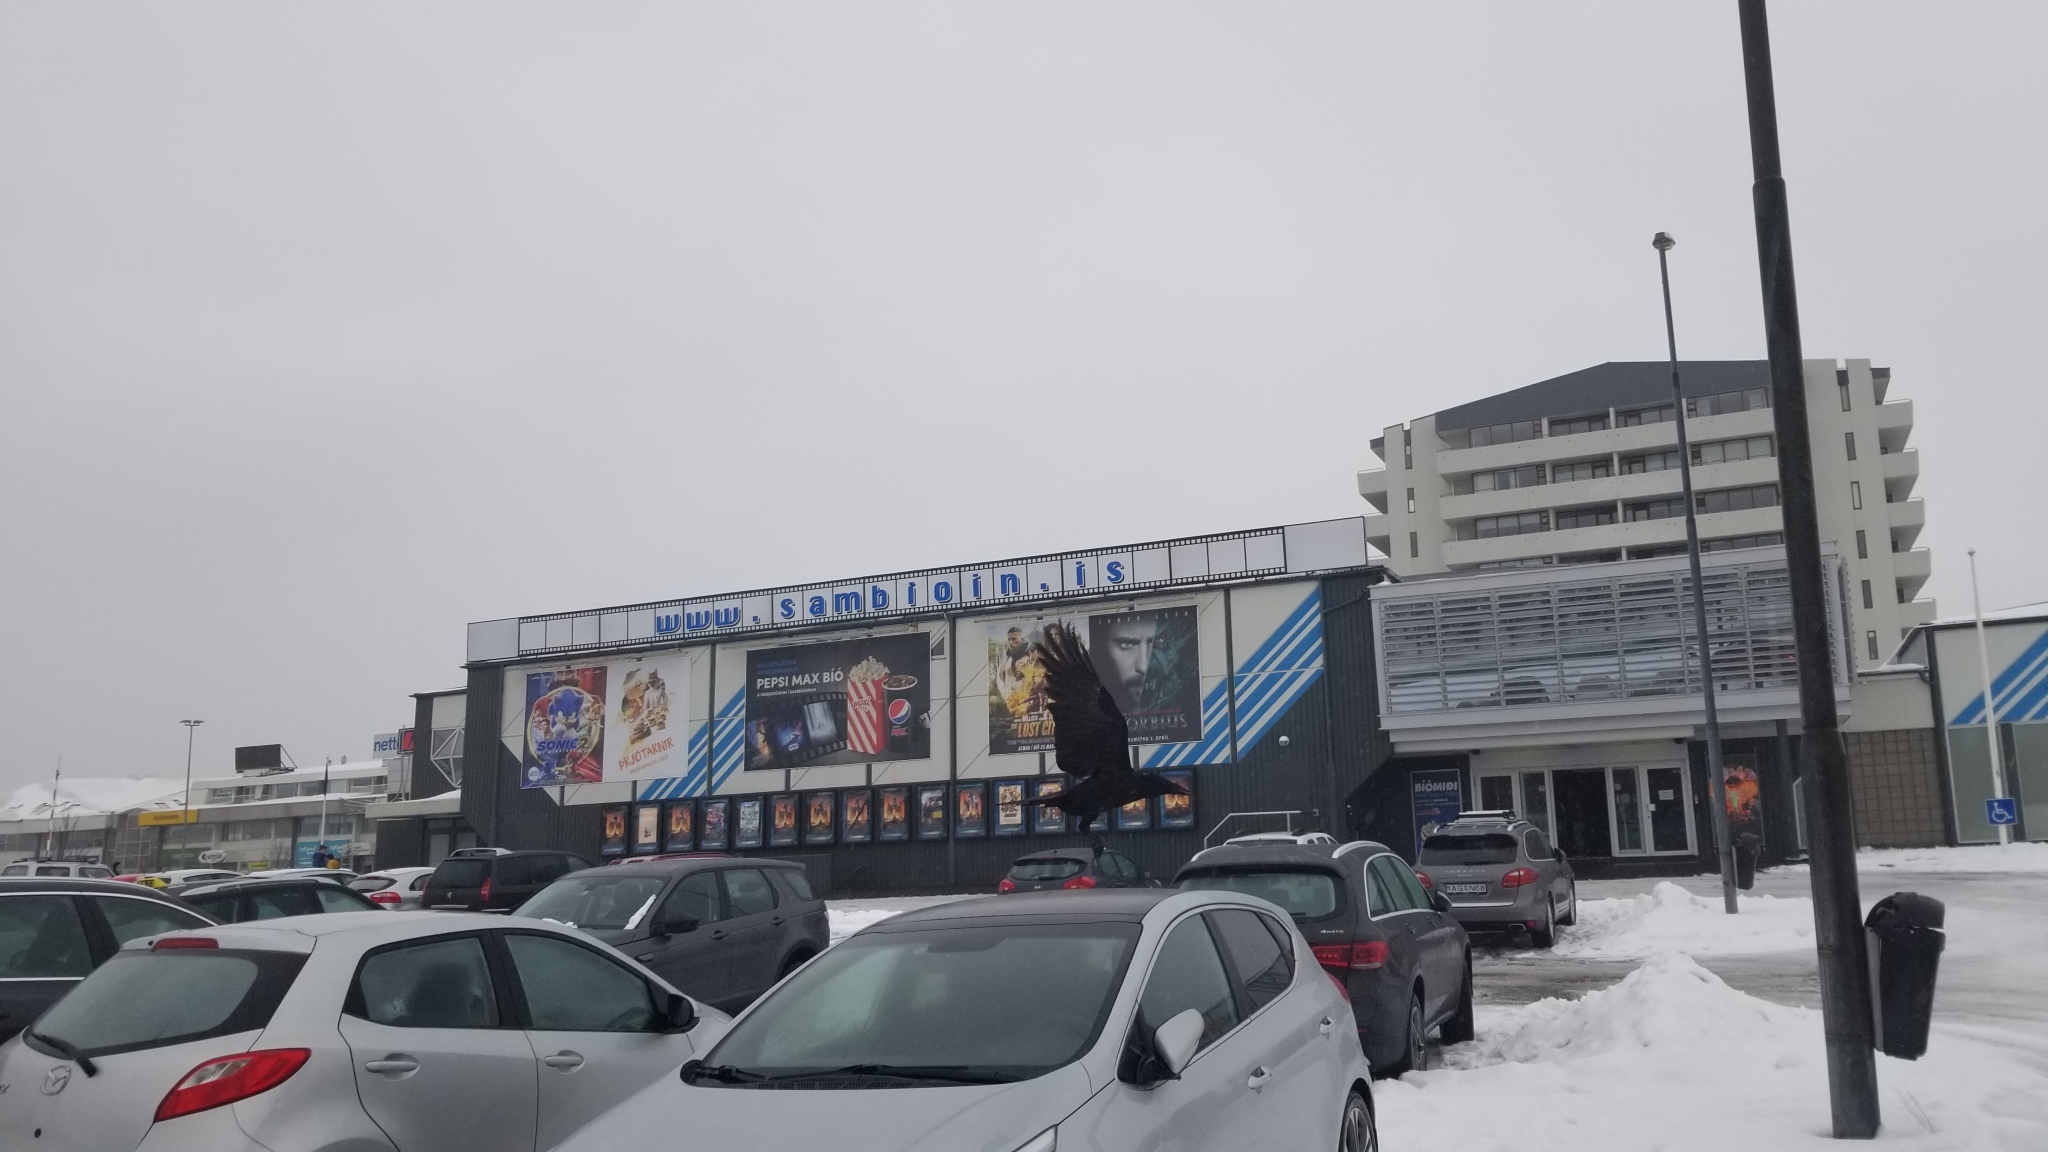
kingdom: Animalia
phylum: Chordata
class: Aves
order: Passeriformes
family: Corvidae
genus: Corvus
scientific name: Corvus corax
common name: Common raven
